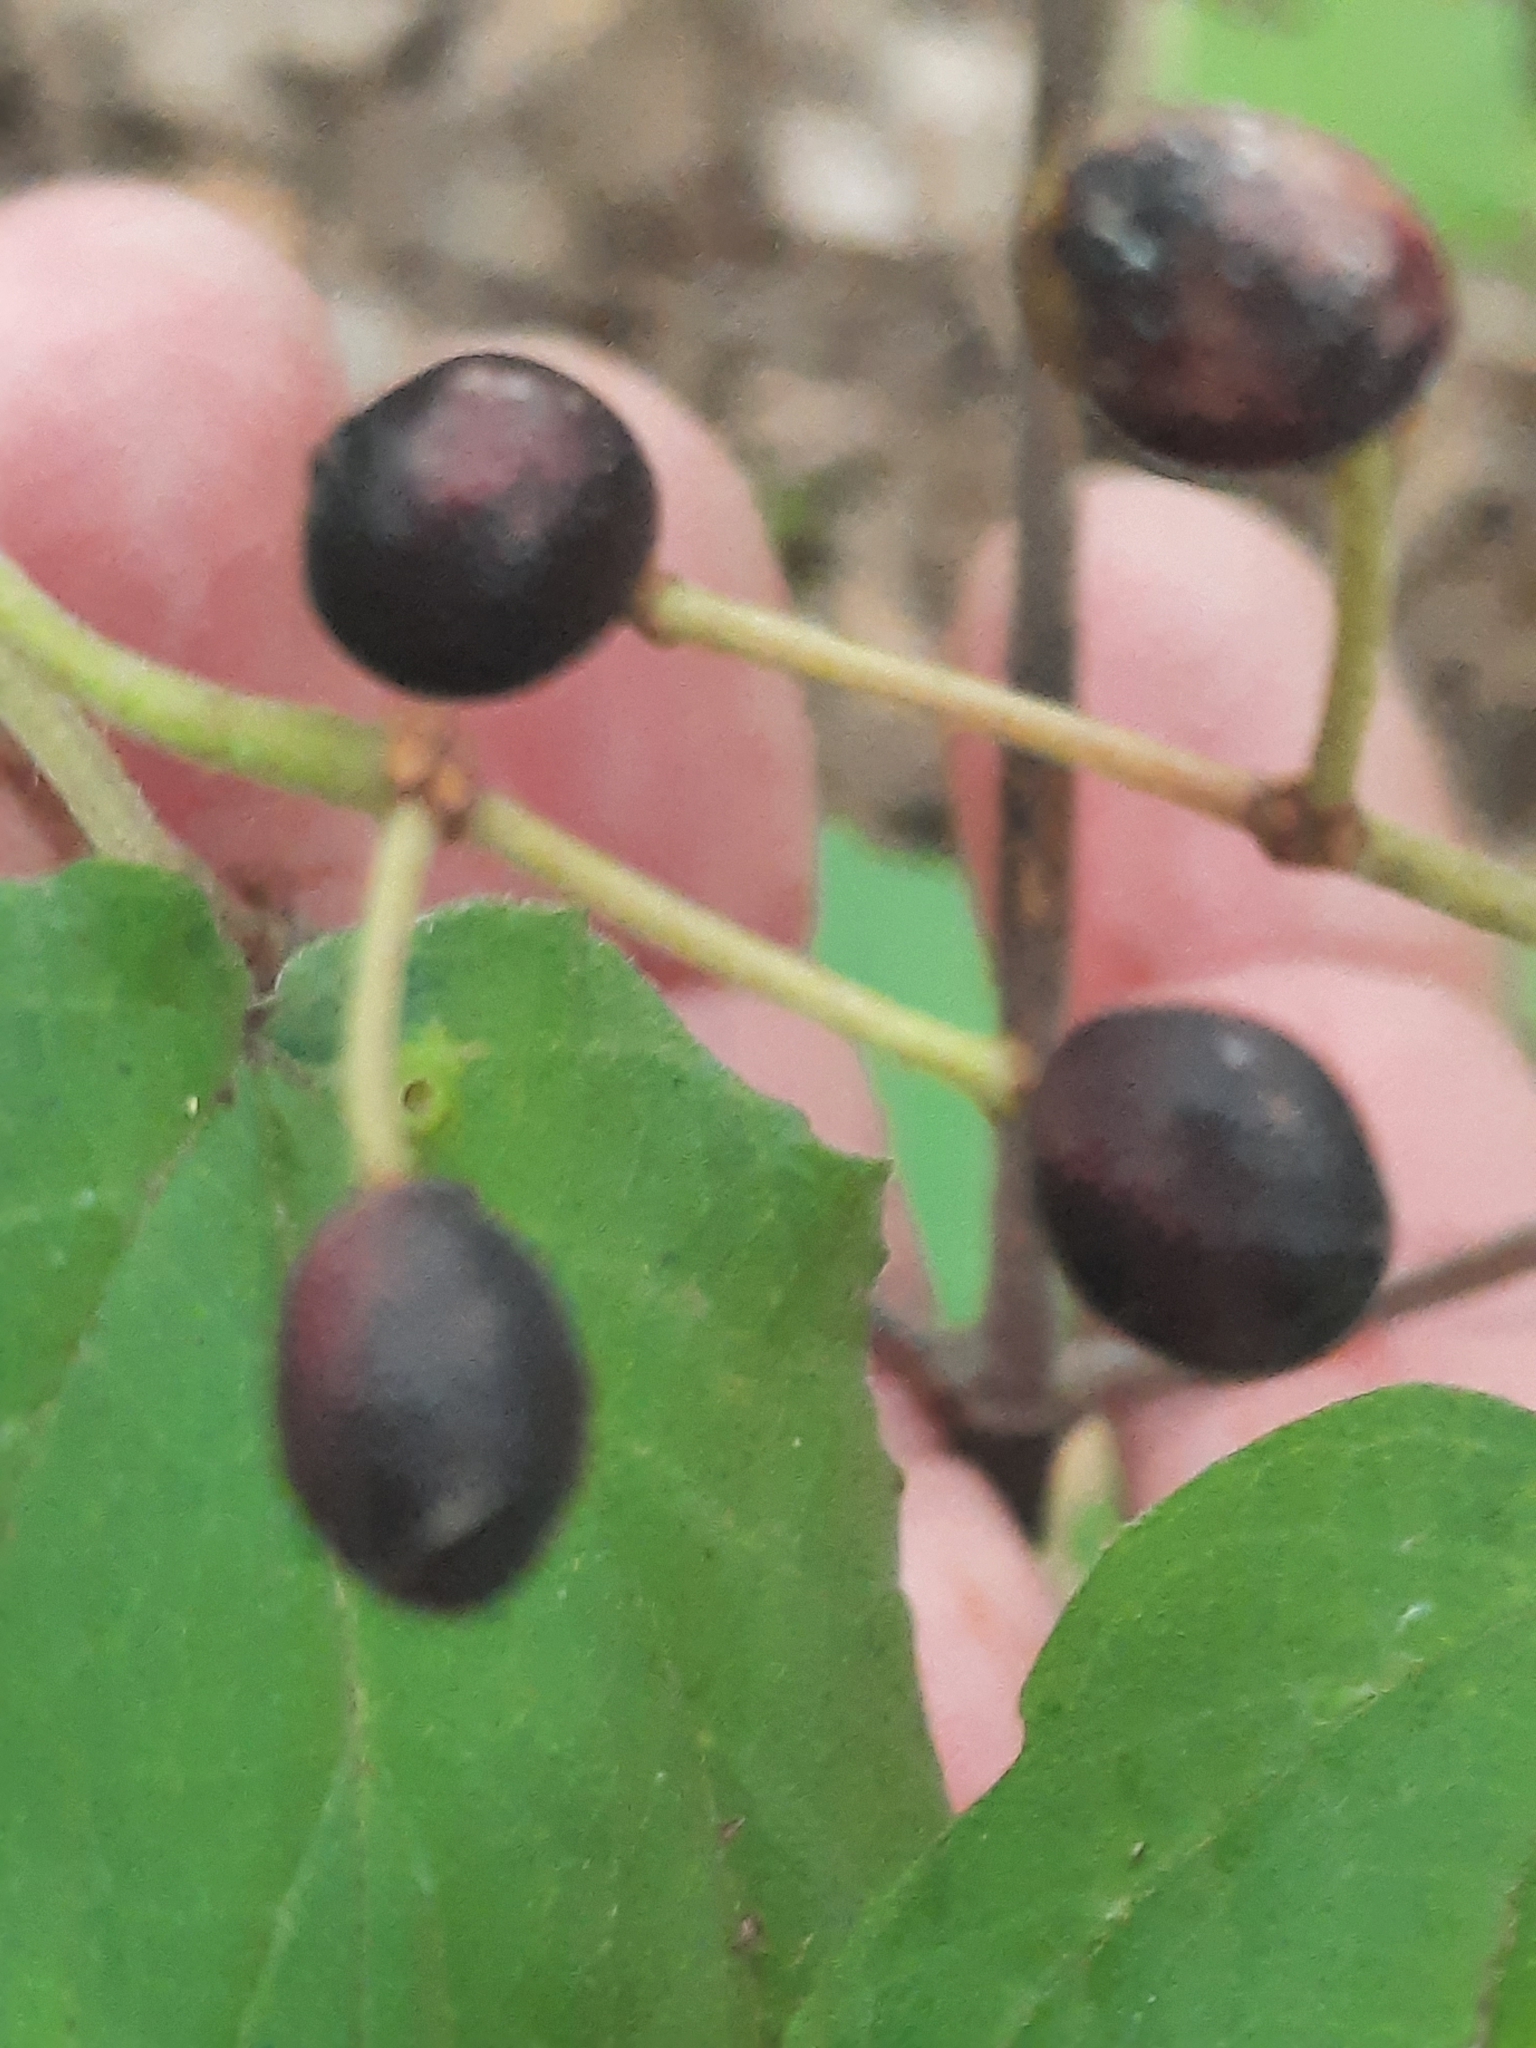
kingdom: Plantae
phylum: Tracheophyta
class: Magnoliopsida
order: Dipsacales
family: Viburnaceae
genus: Viburnum
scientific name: Viburnum acerifolium
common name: Dockmackie
